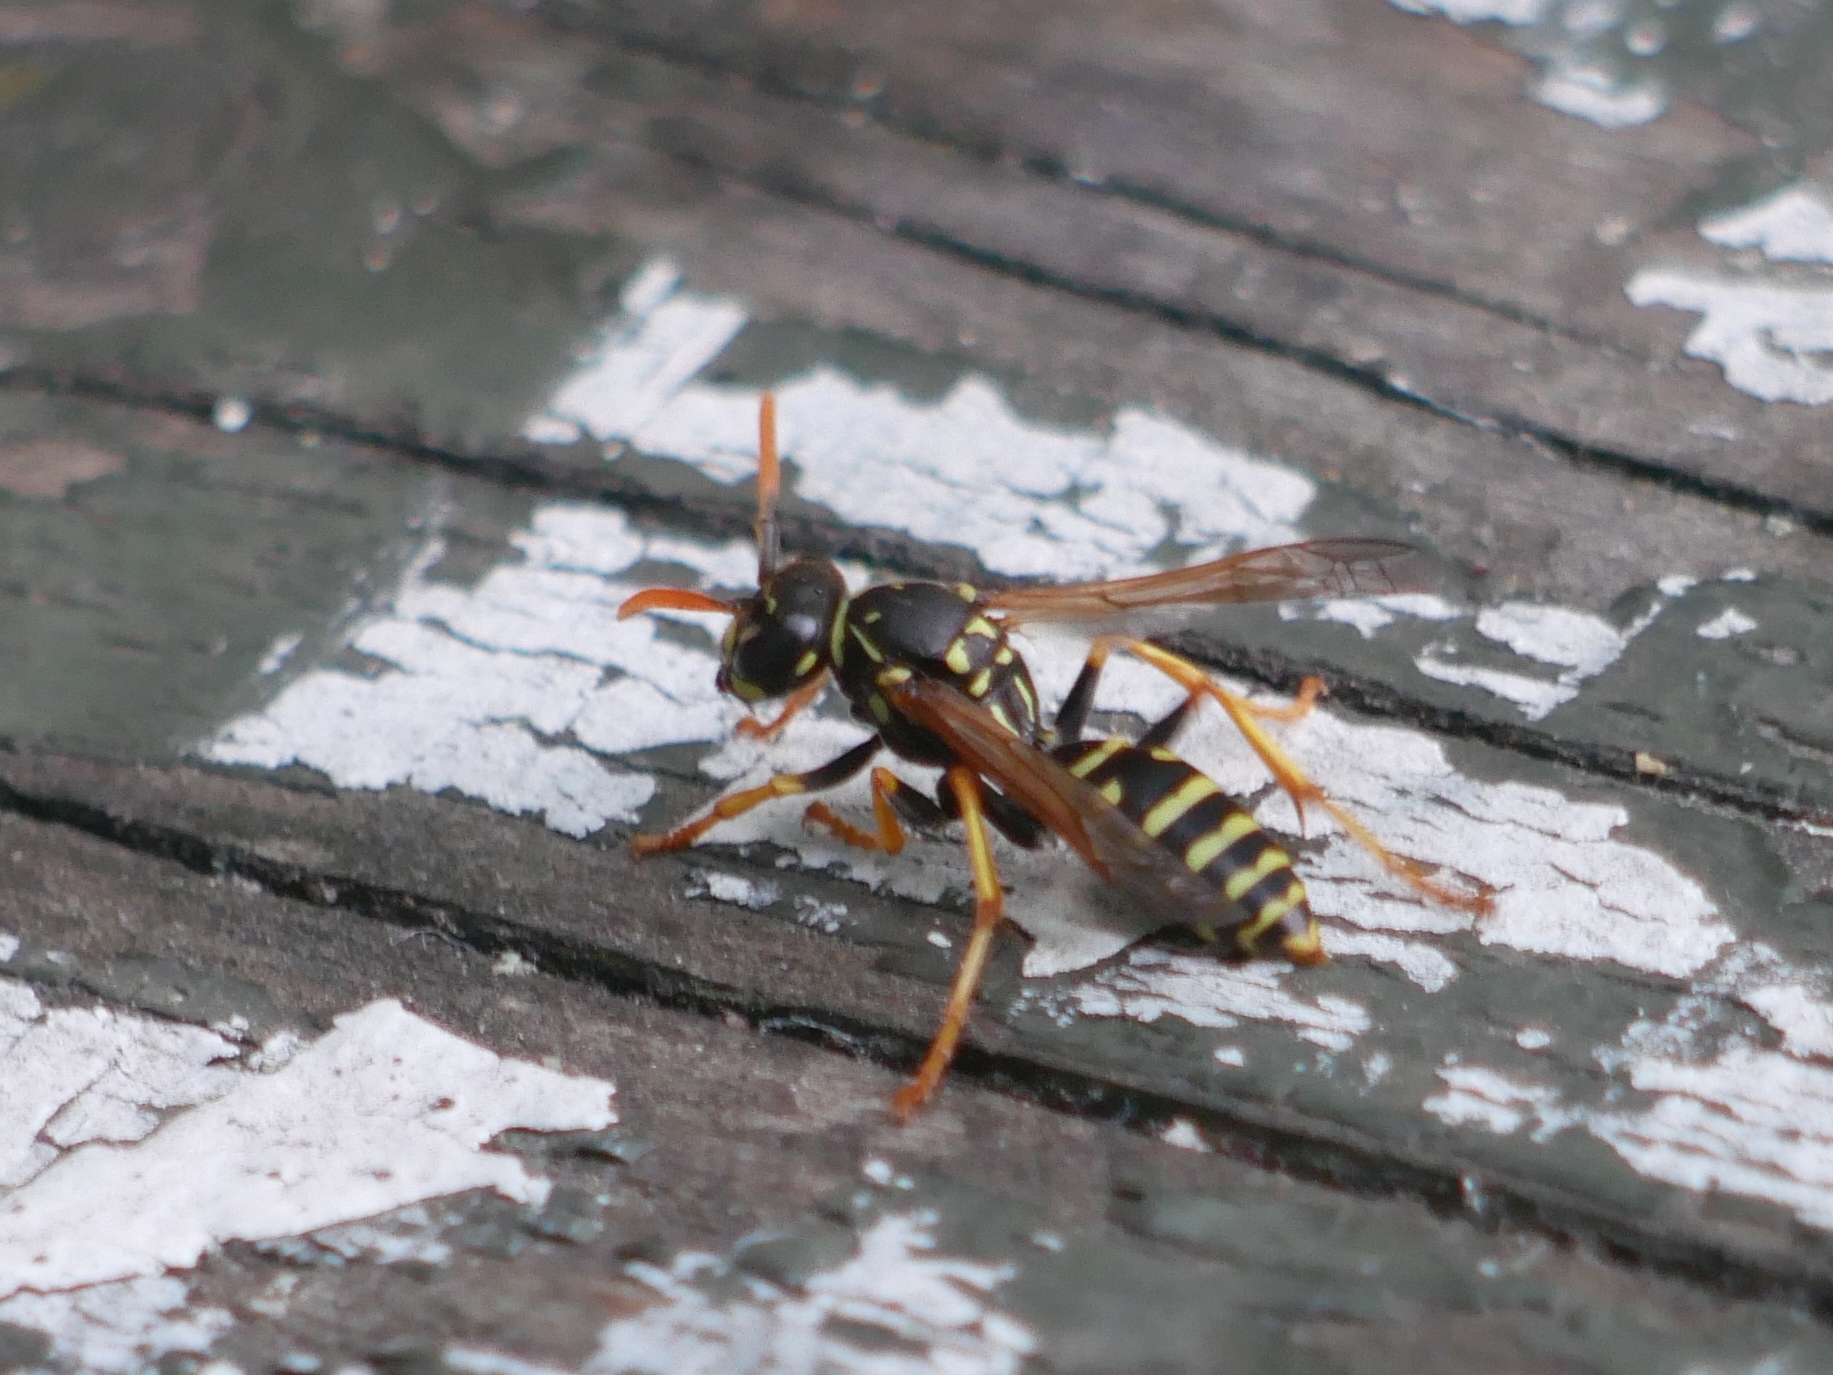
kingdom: Animalia
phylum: Arthropoda
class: Insecta
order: Hymenoptera
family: Eumenidae
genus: Polistes
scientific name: Polistes dominula
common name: Paper wasp
